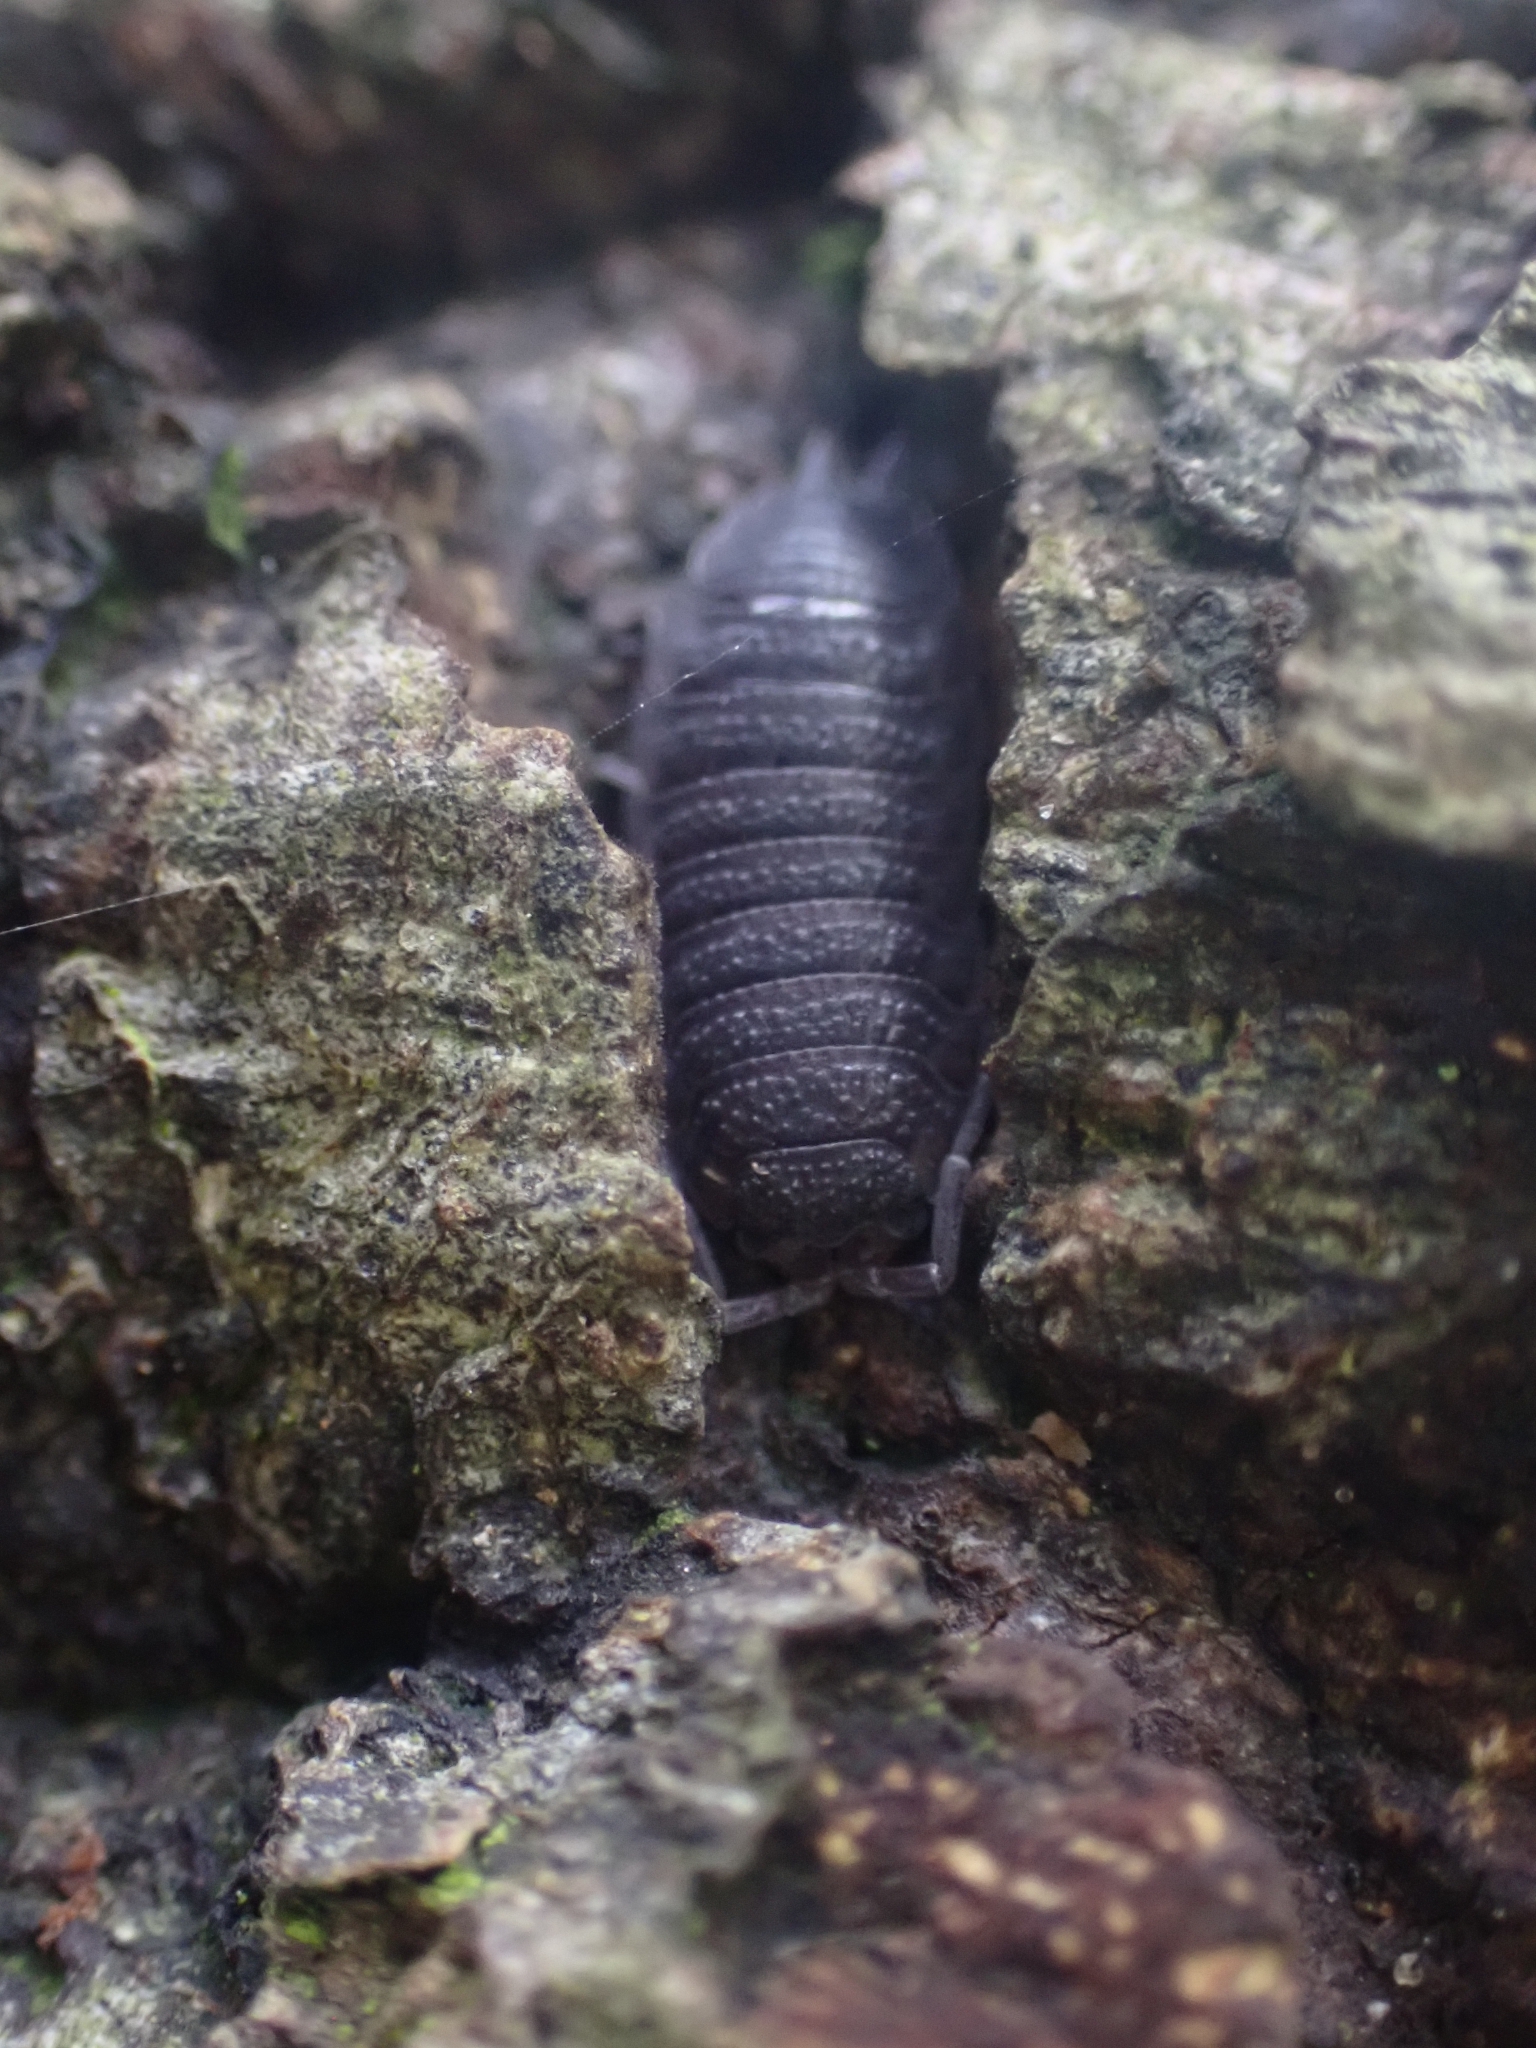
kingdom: Animalia
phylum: Arthropoda
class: Malacostraca
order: Isopoda
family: Porcellionidae
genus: Porcellio
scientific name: Porcellio scaber
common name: Common rough woodlouse
